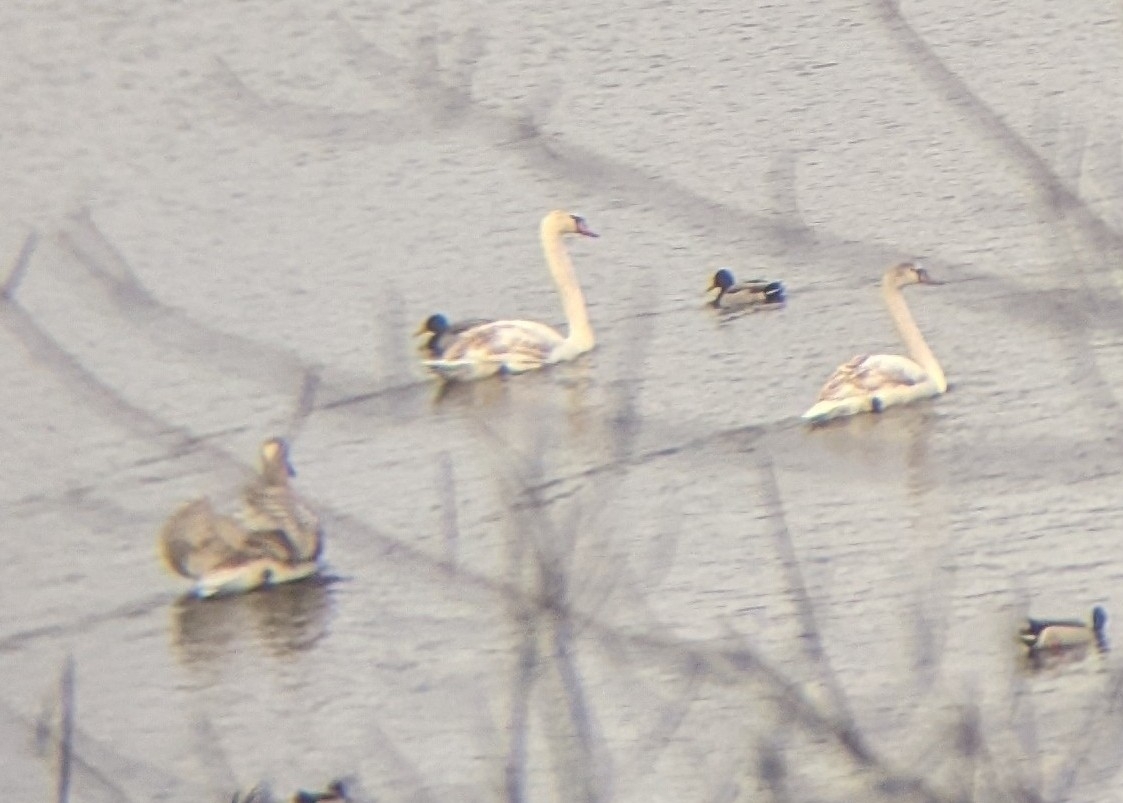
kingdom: Animalia
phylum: Chordata
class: Aves
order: Anseriformes
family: Anatidae
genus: Cygnus
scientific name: Cygnus olor
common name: Mute swan
